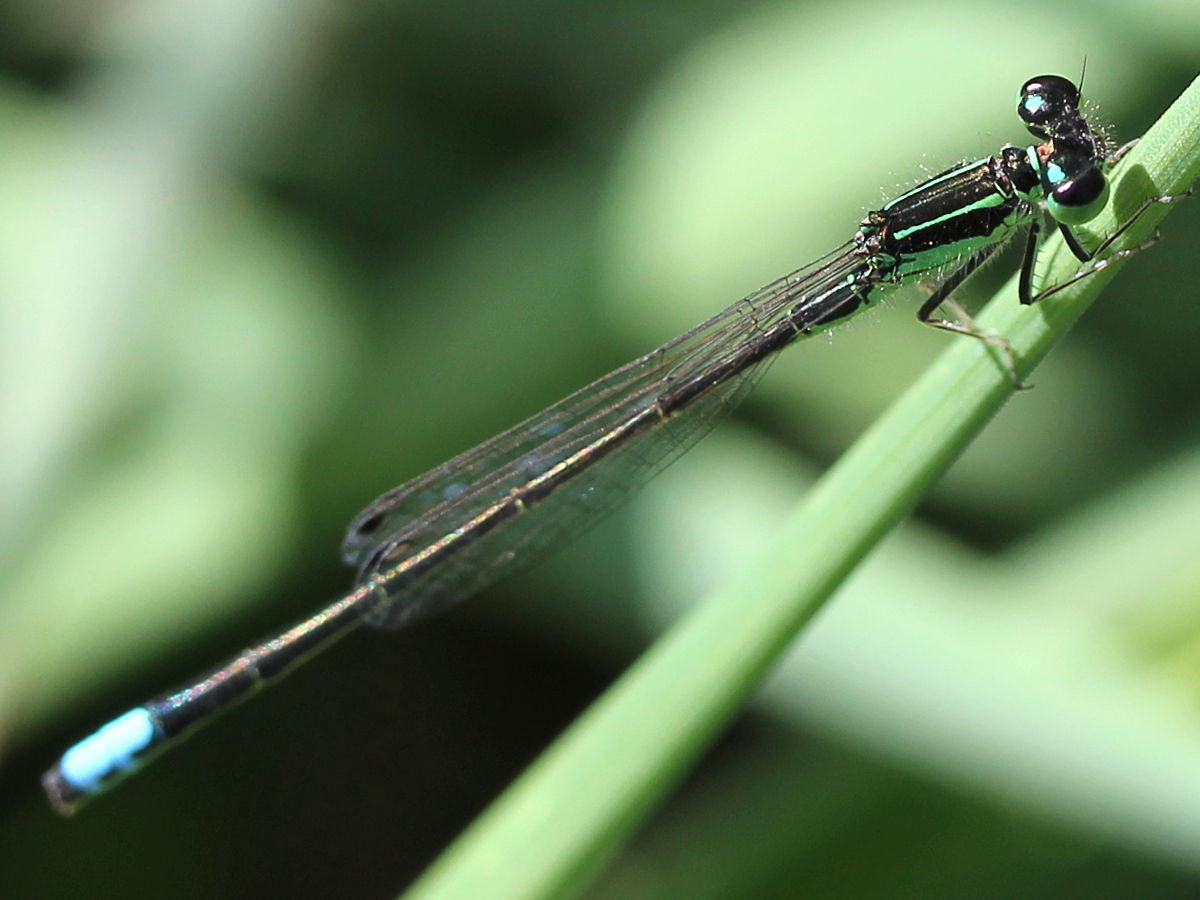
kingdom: Animalia
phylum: Arthropoda
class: Insecta
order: Odonata
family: Coenagrionidae
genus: Ischnura
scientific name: Ischnura verticalis
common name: Eastern forktail
